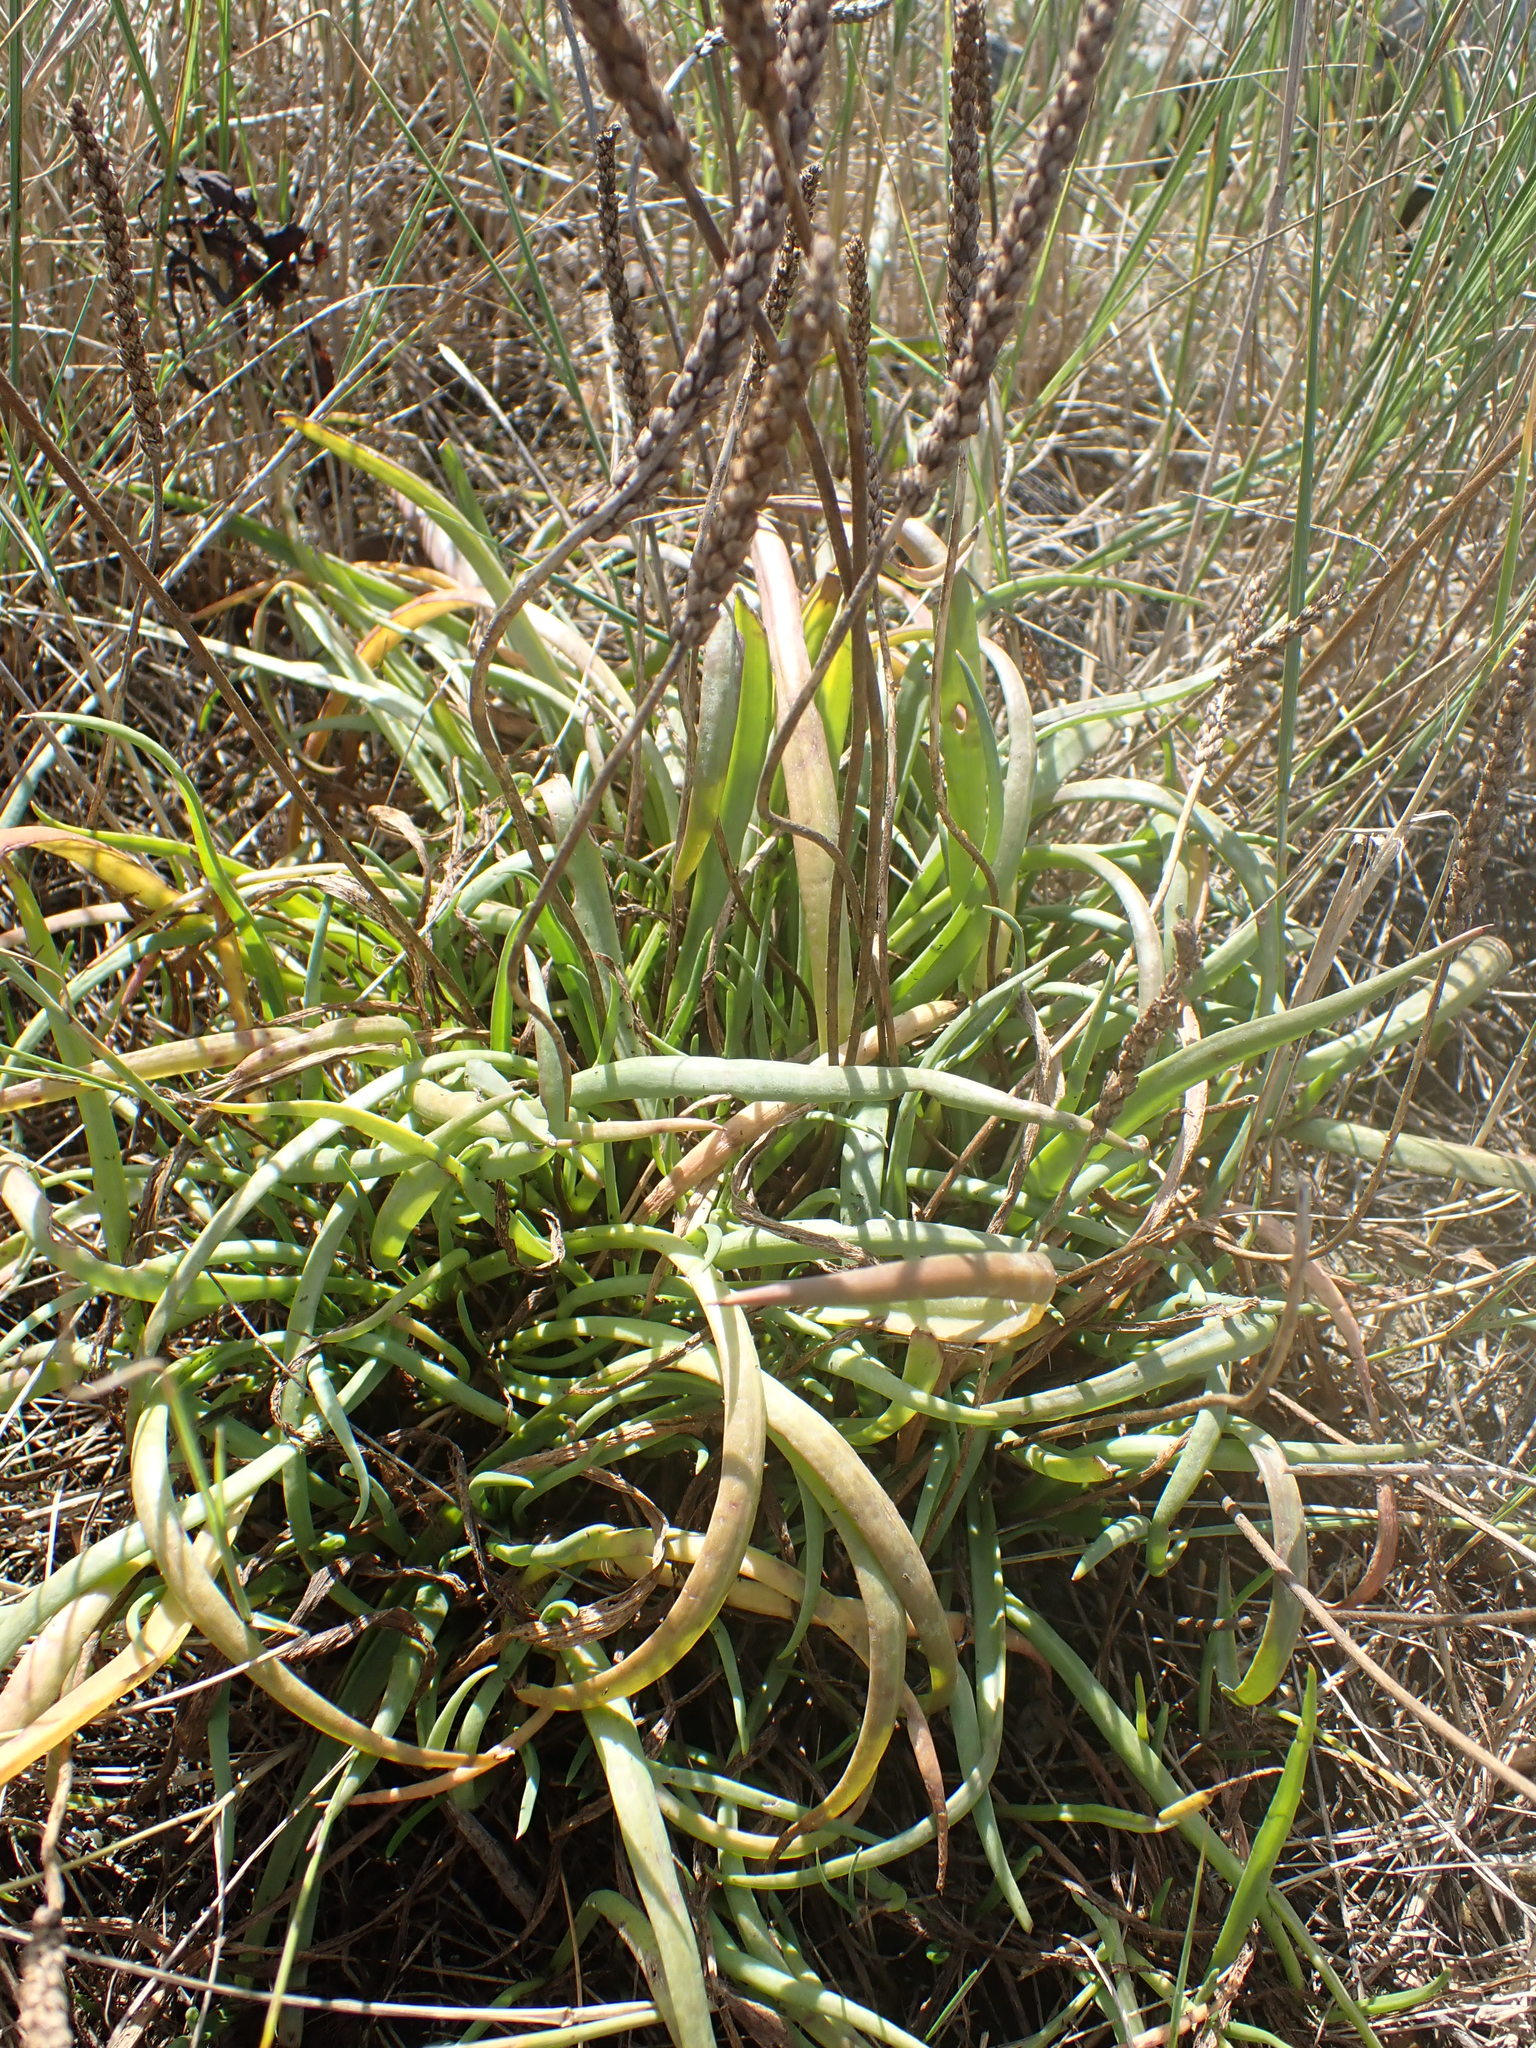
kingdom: Plantae
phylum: Tracheophyta
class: Magnoliopsida
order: Lamiales
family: Plantaginaceae
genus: Plantago
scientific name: Plantago maritima
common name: Sea plantain
